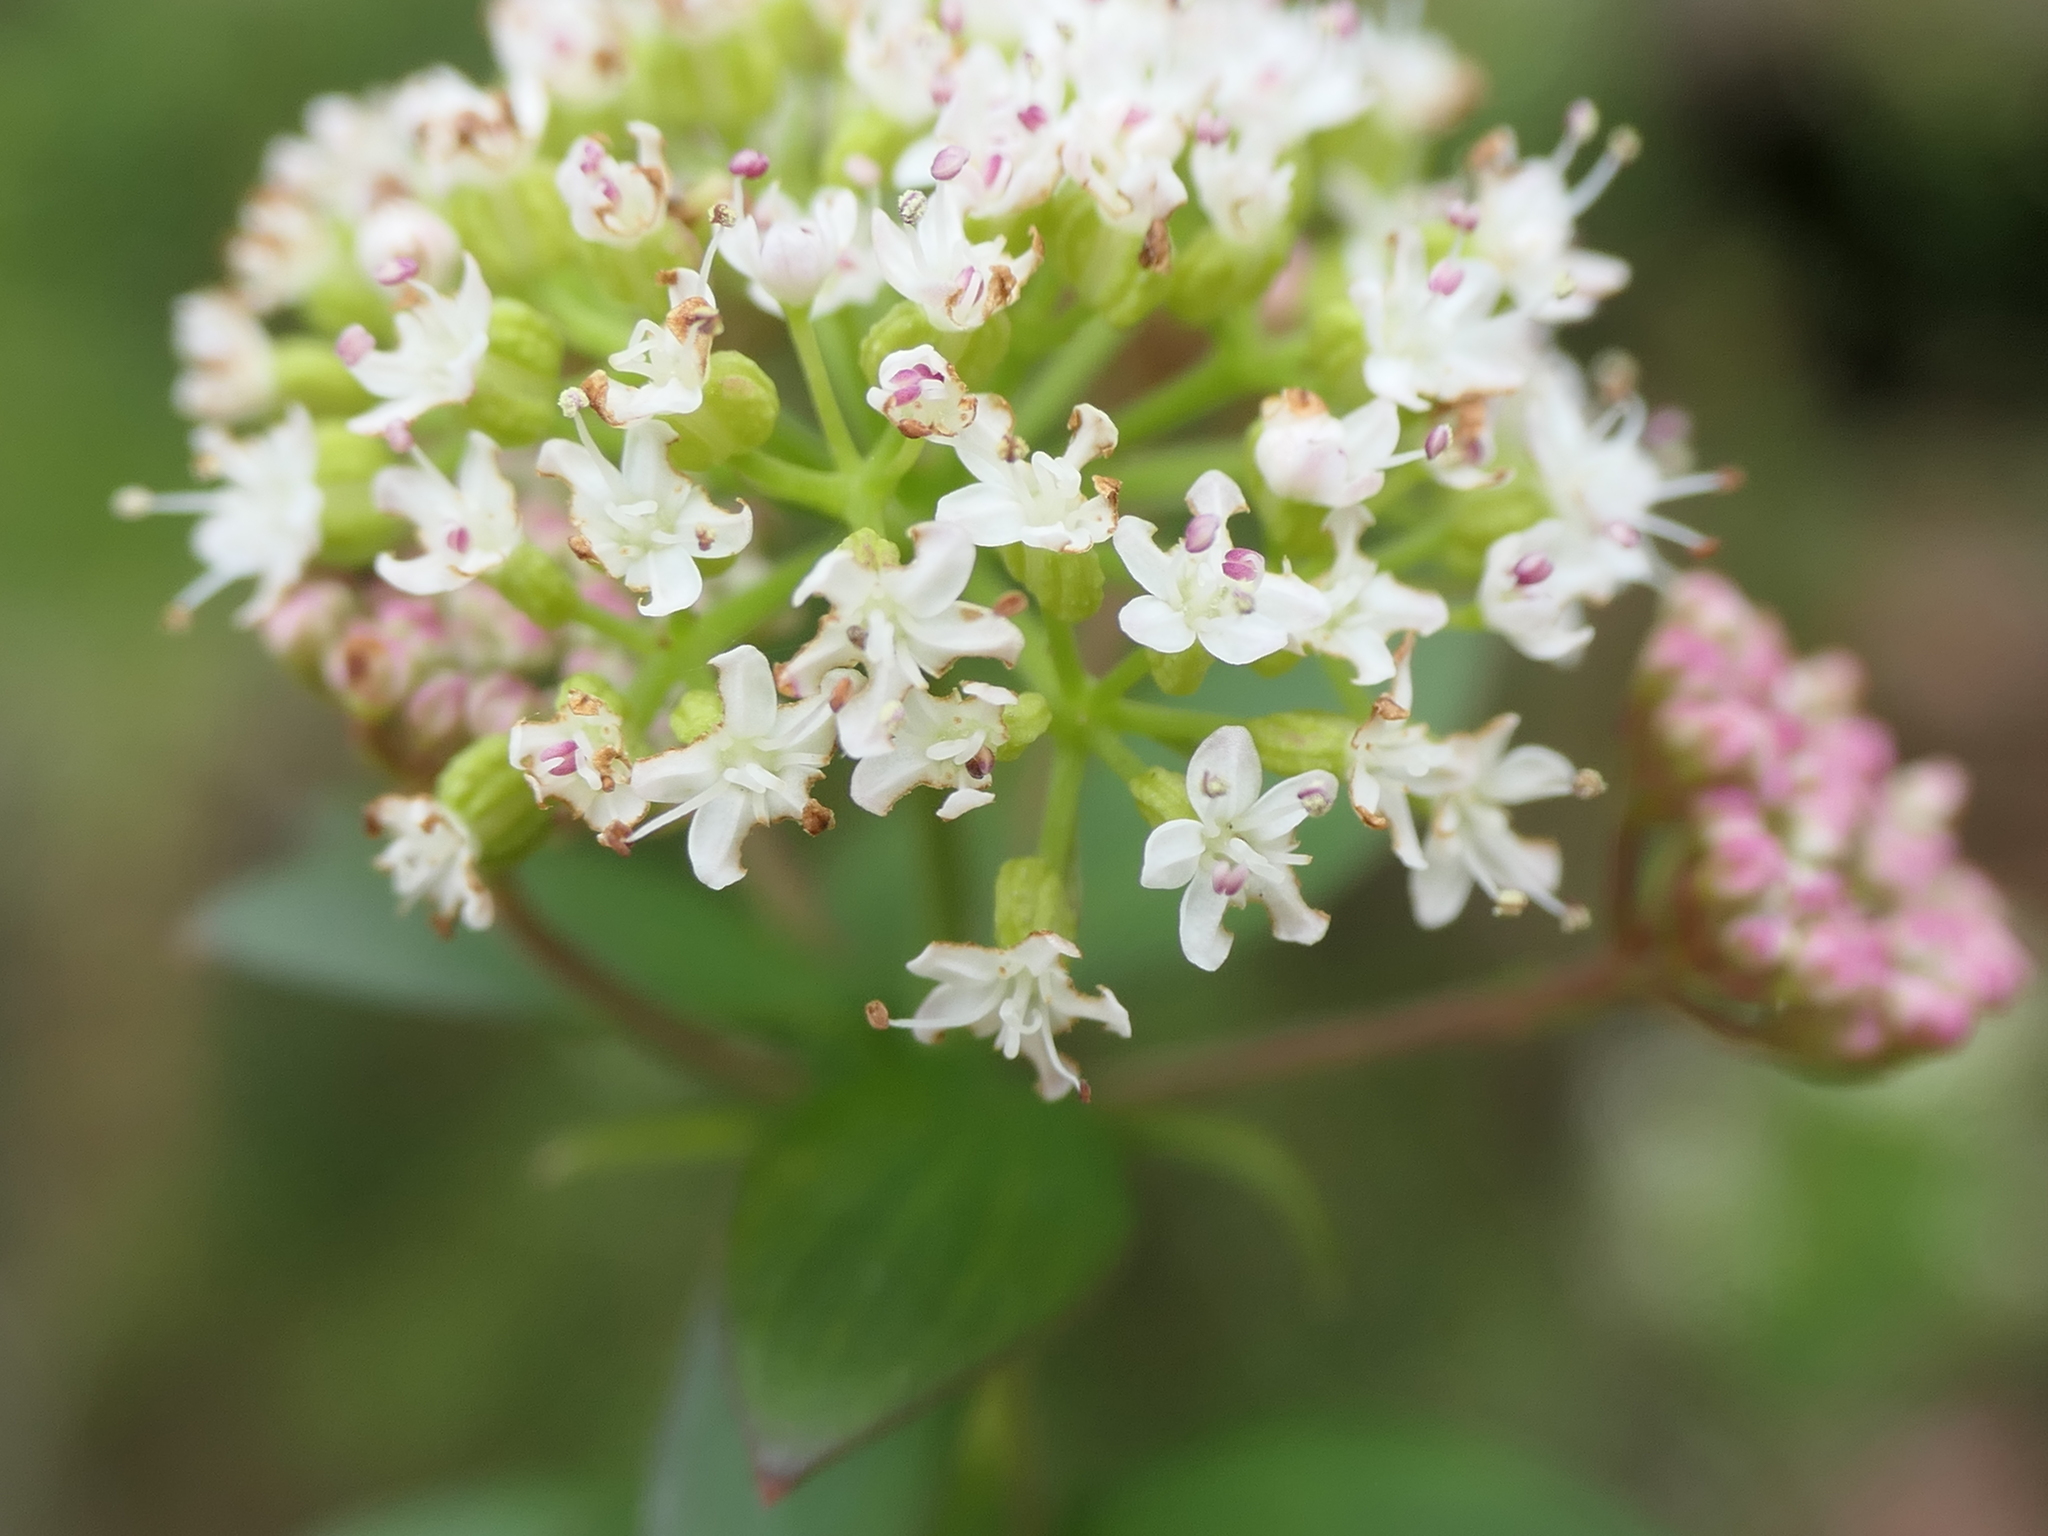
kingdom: Plantae
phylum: Tracheophyta
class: Magnoliopsida
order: Apiales
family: Apiaceae
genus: Platysace
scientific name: Platysace lanceolata
